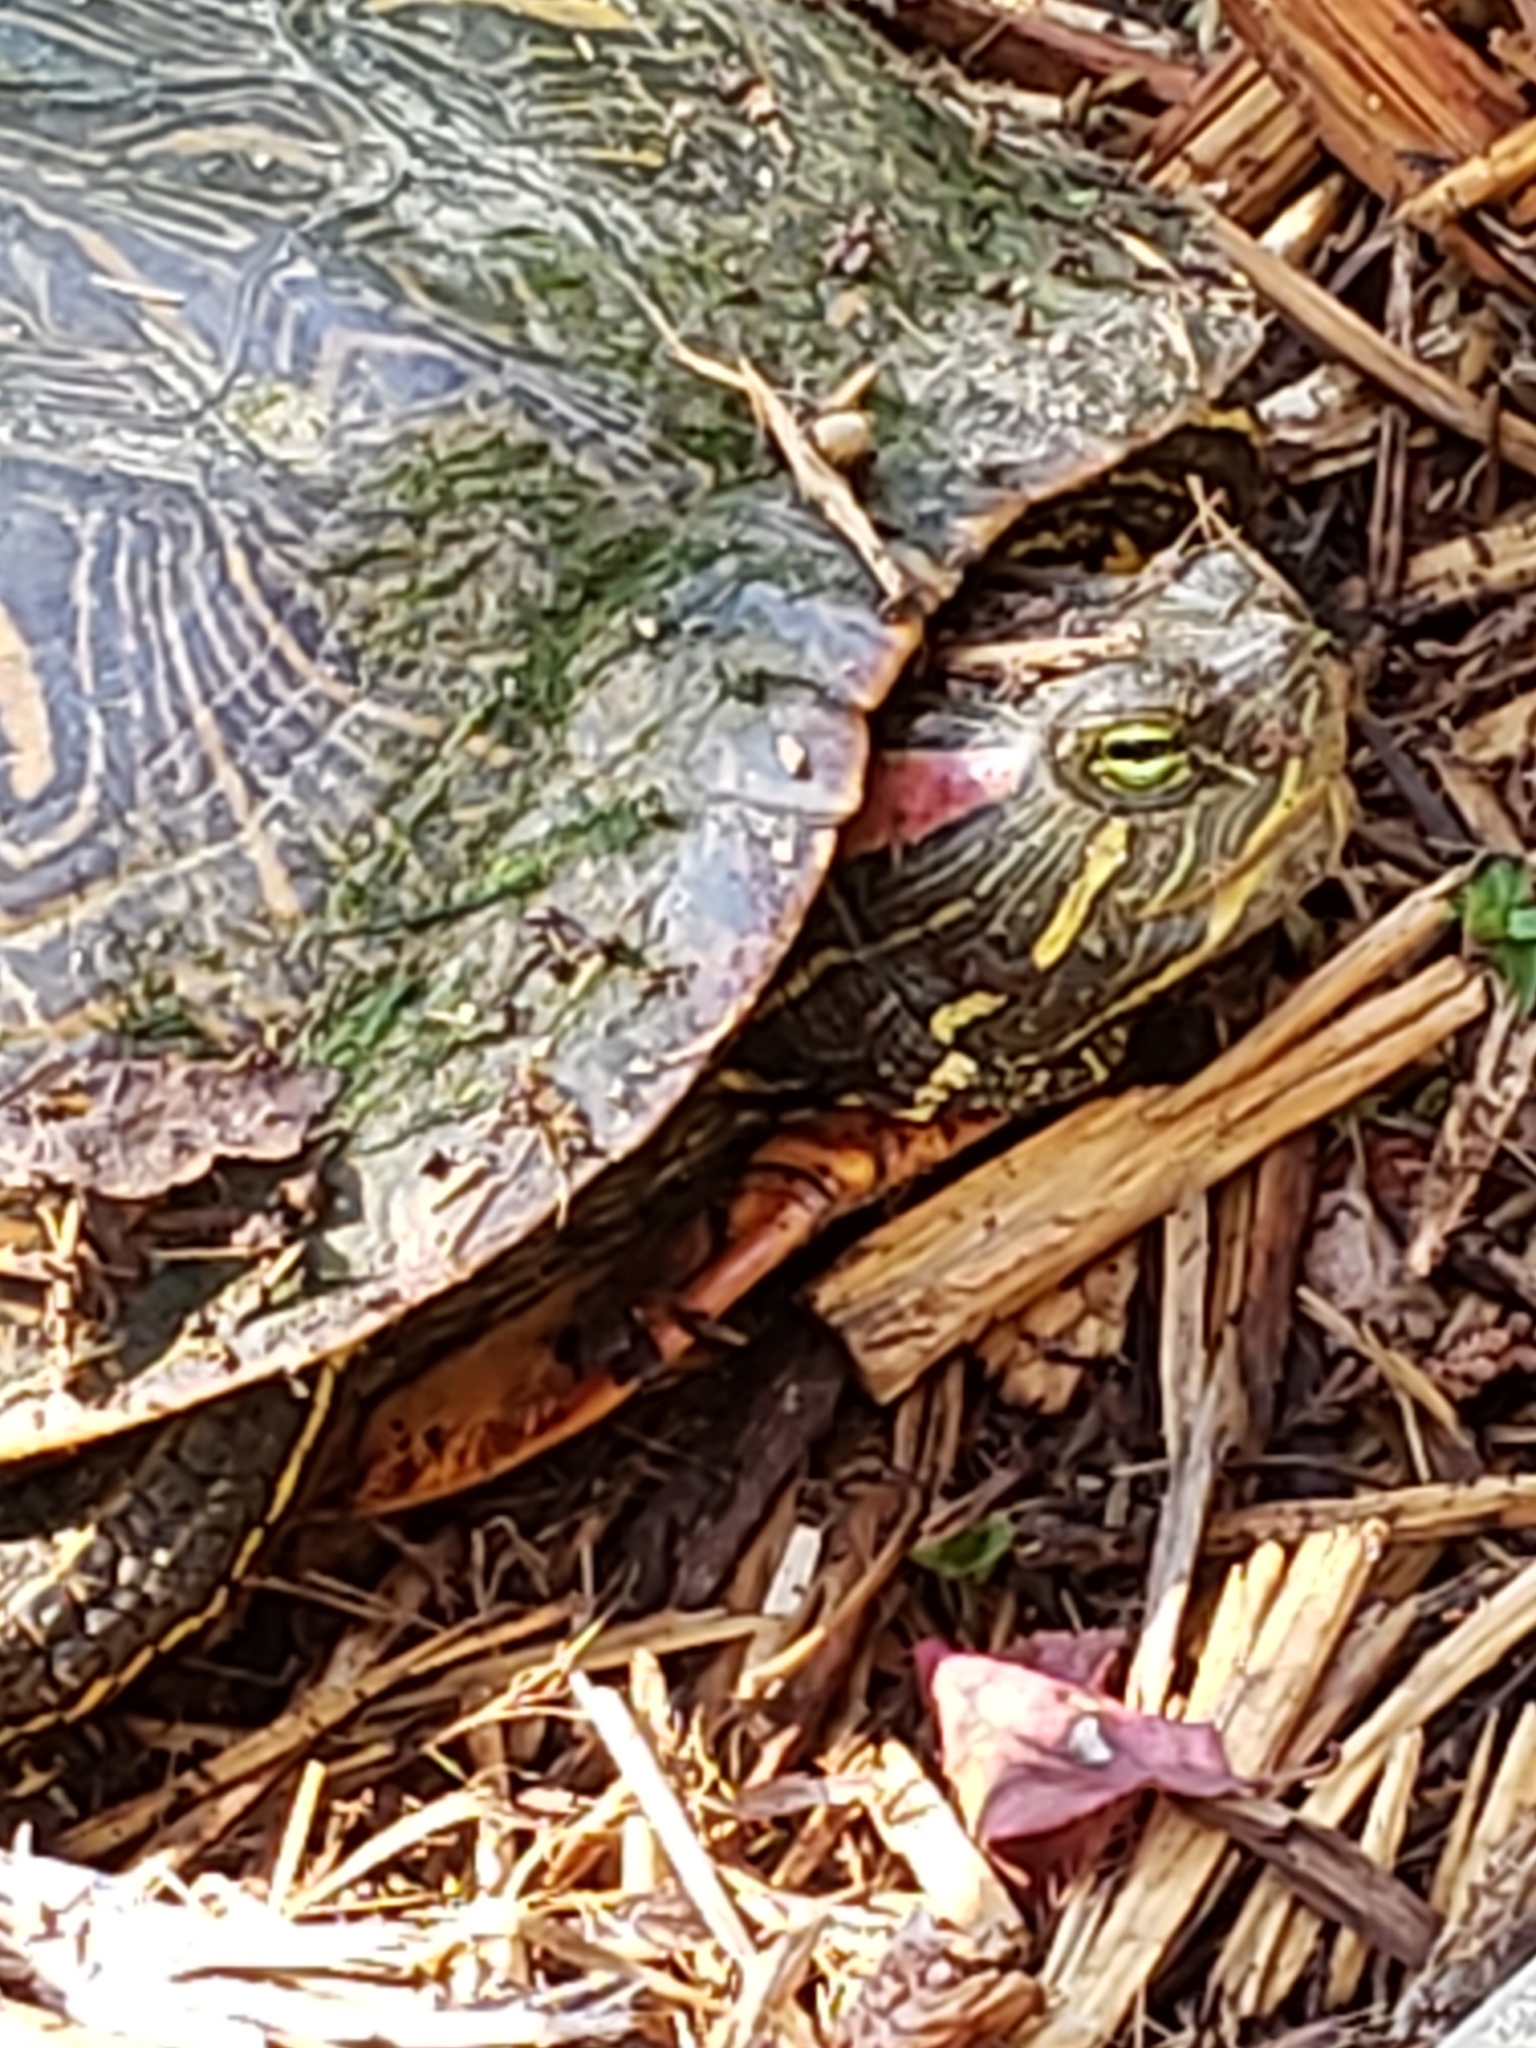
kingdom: Animalia
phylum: Chordata
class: Testudines
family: Emydidae
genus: Trachemys
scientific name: Trachemys scripta
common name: Slider
